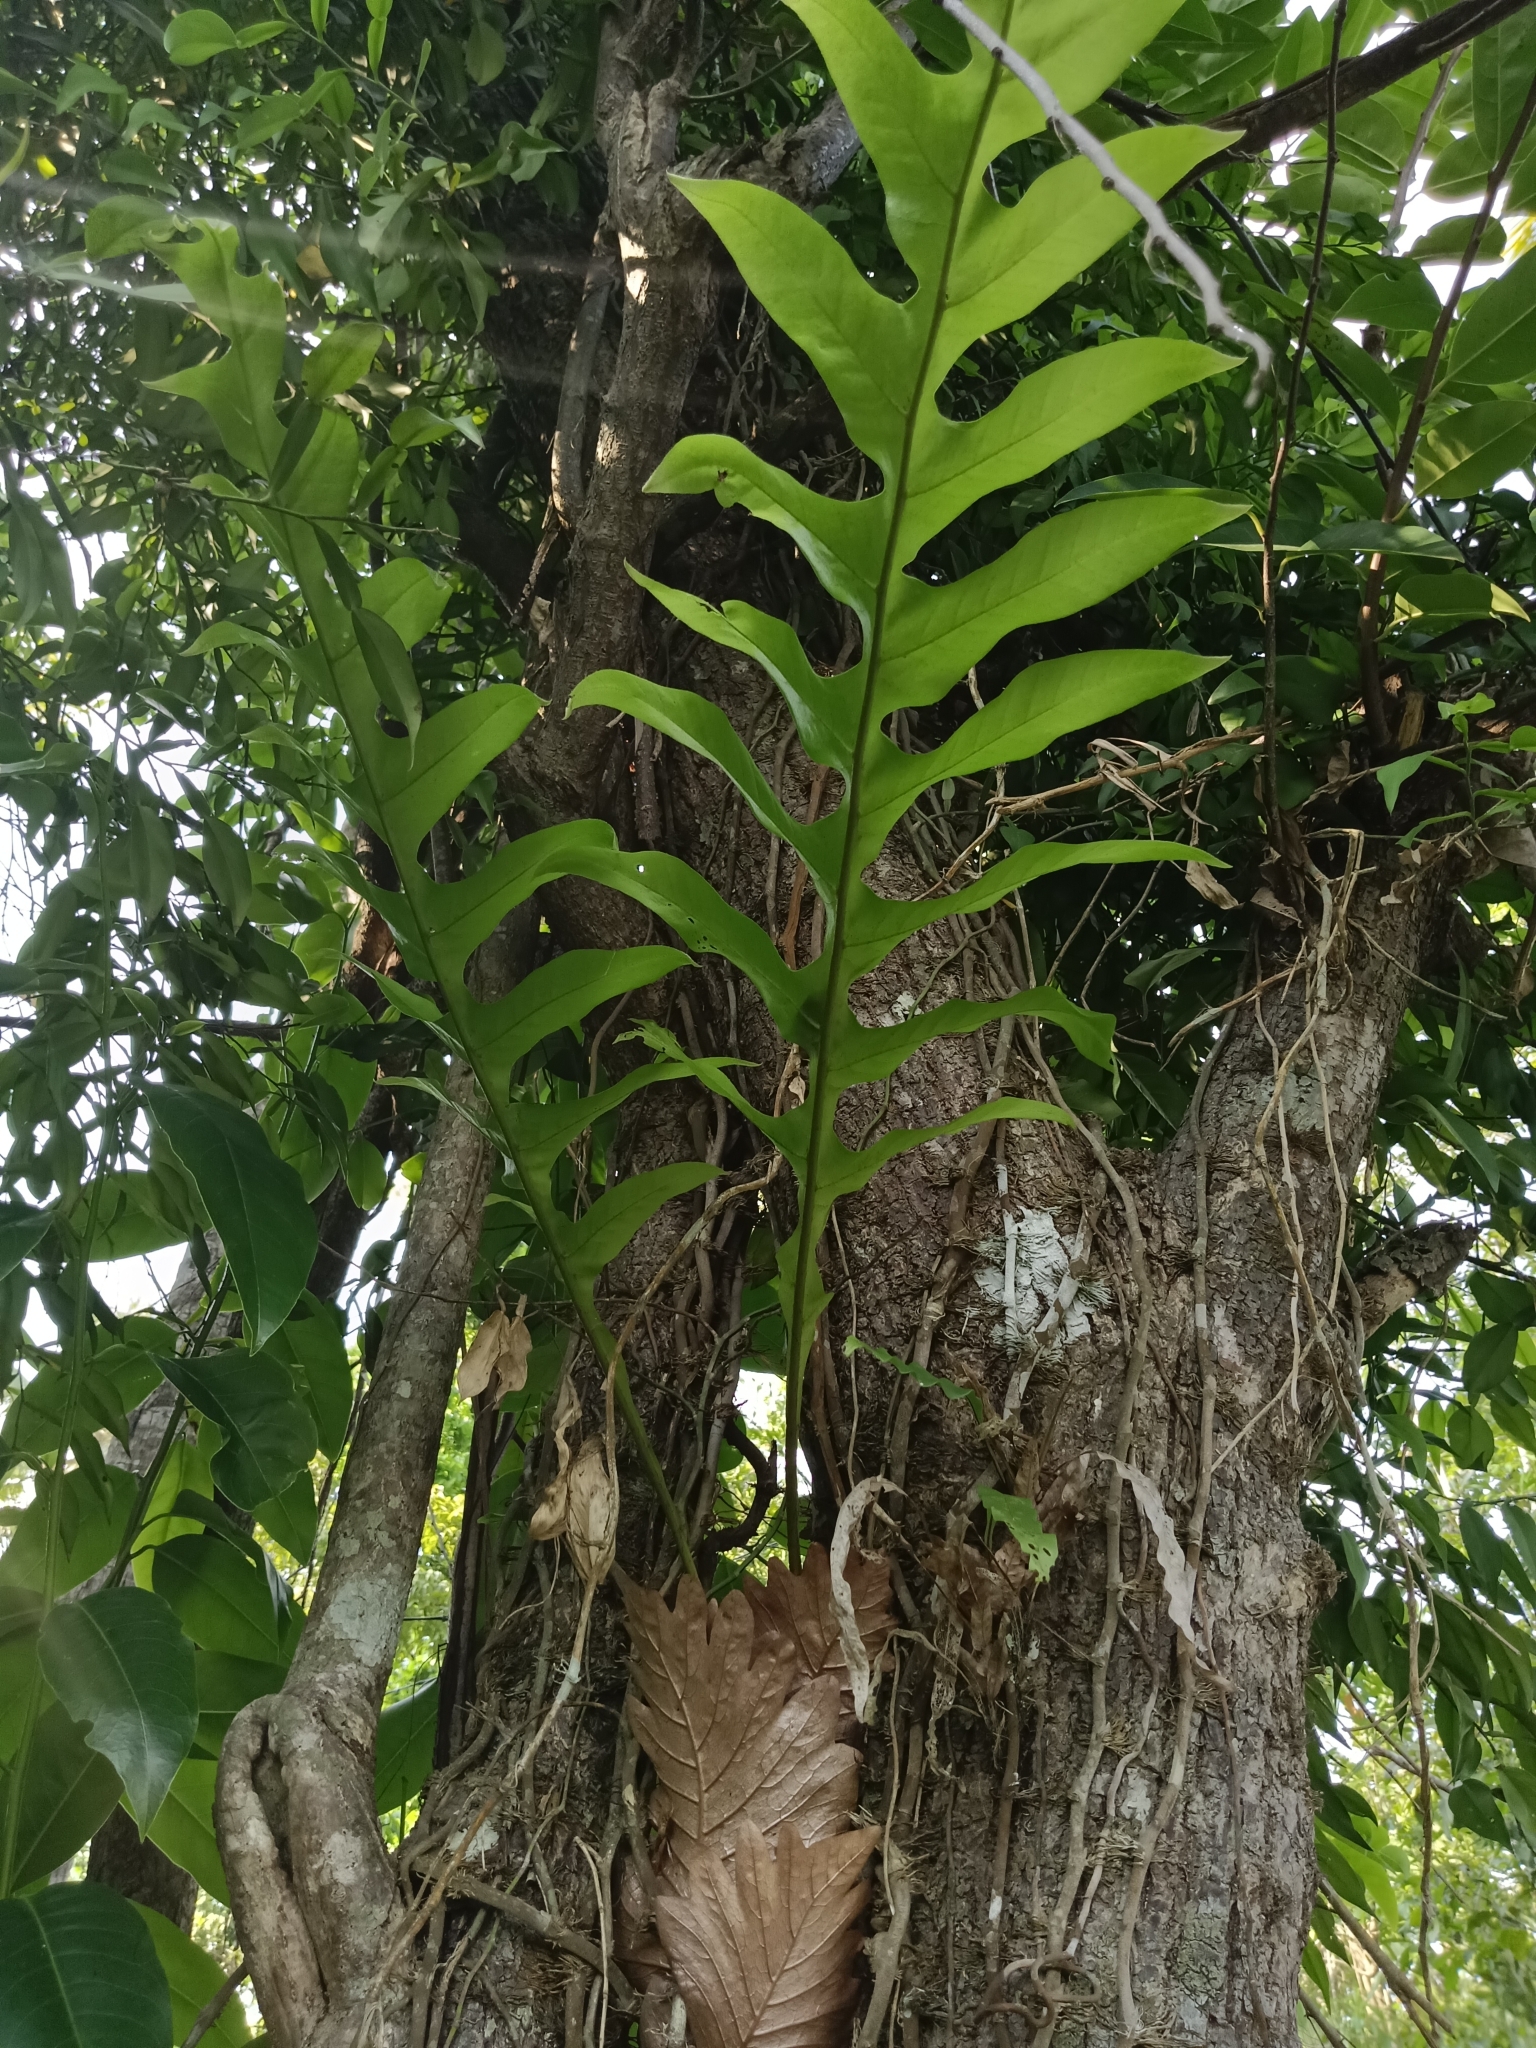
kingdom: Plantae
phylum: Tracheophyta
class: Polypodiopsida
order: Polypodiales
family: Polypodiaceae
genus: Drynaria
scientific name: Drynaria quercifolia
